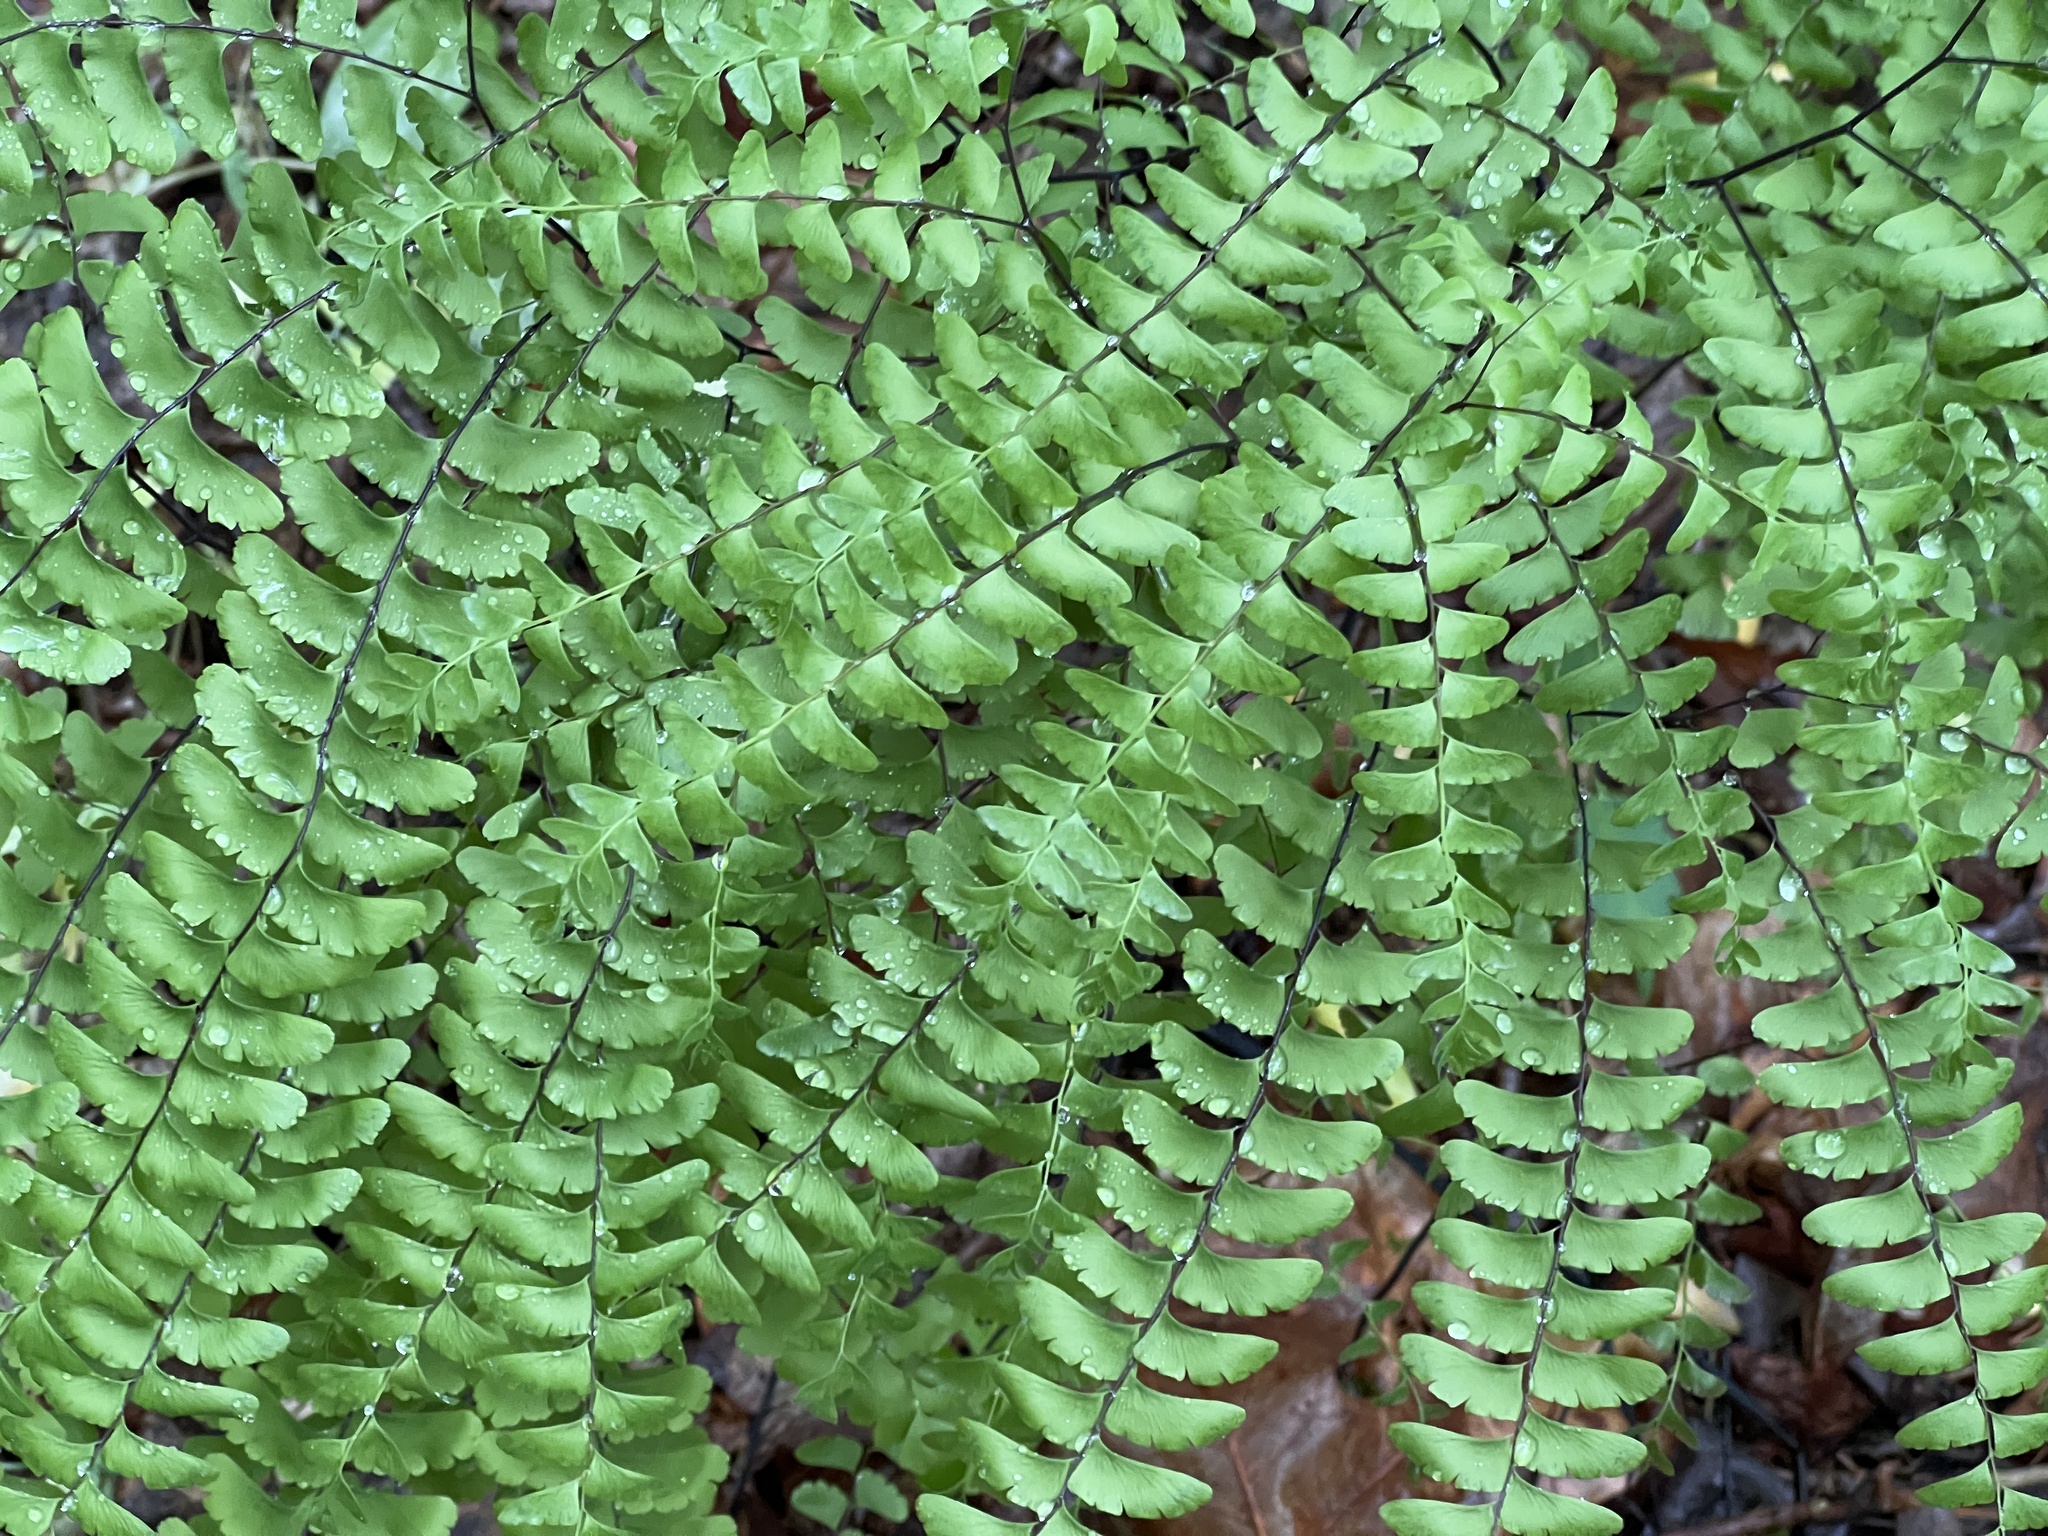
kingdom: Plantae
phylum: Tracheophyta
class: Polypodiopsida
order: Polypodiales
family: Pteridaceae
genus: Adiantum
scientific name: Adiantum pedatum
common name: Five-finger fern
